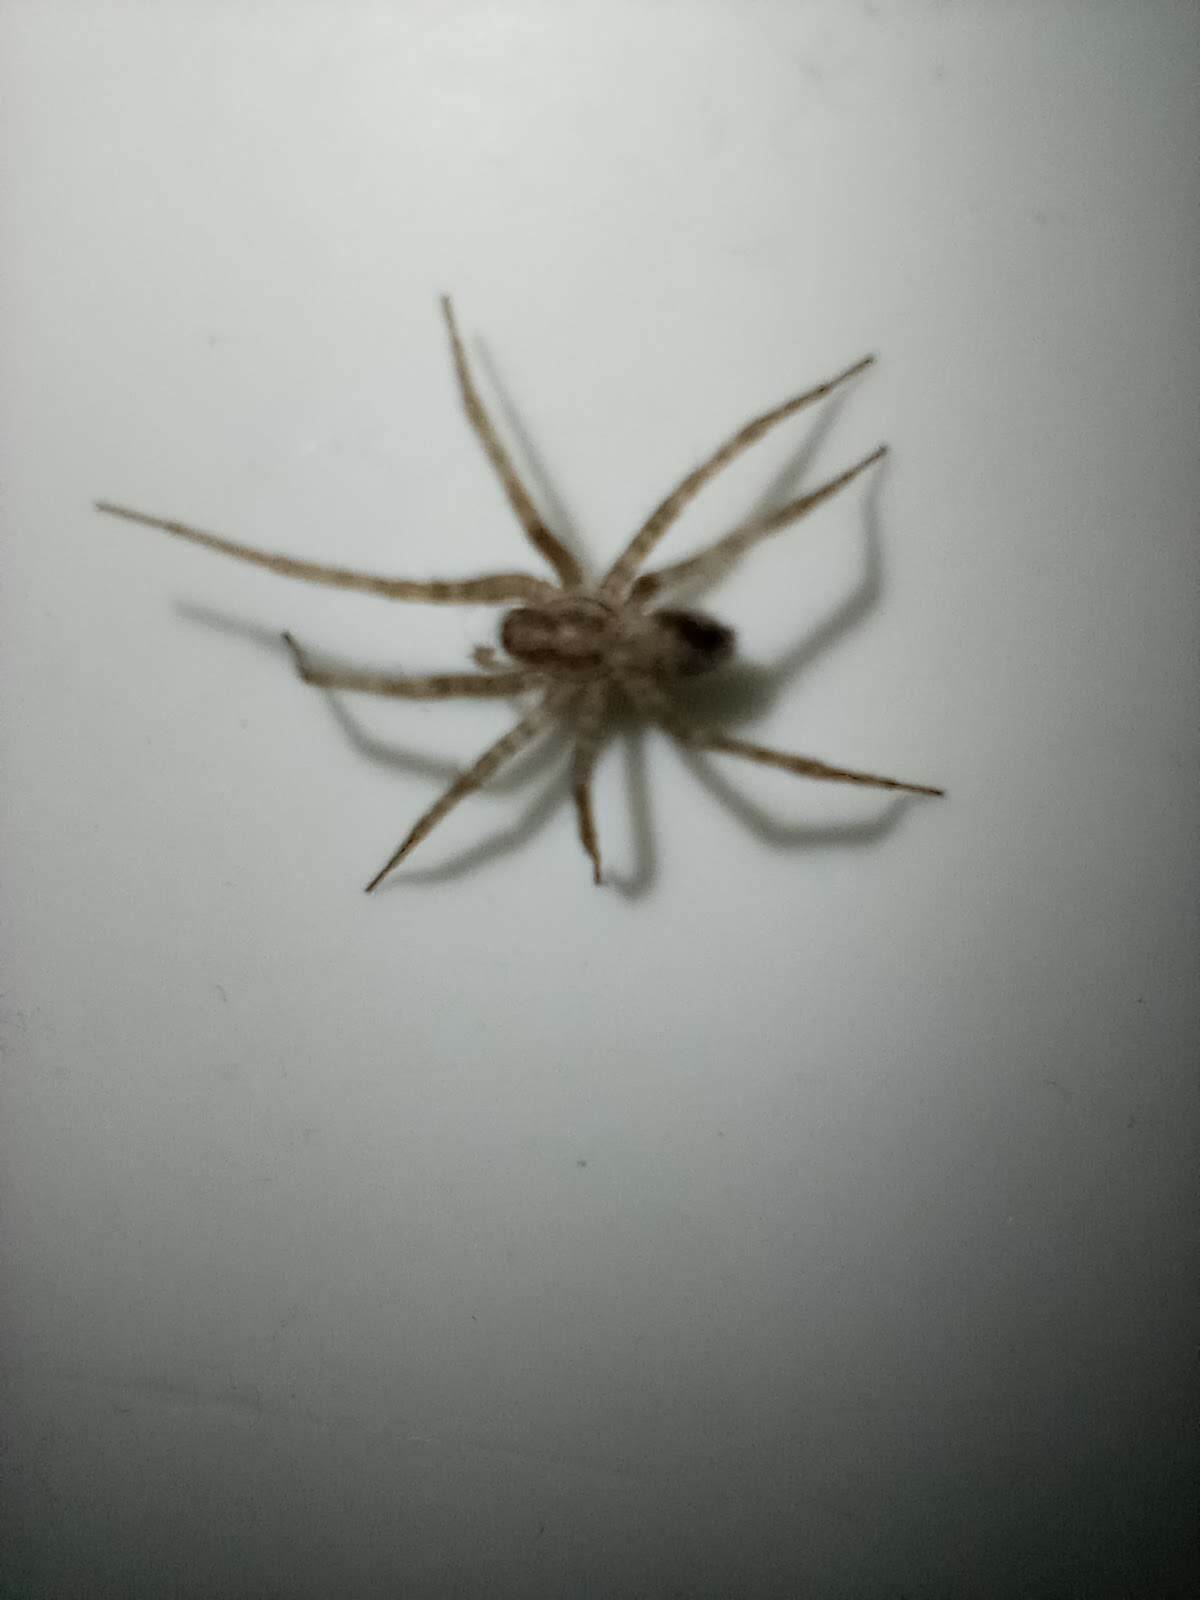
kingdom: Animalia
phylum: Arthropoda
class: Arachnida
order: Araneae
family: Agelenidae
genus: Tegenaria
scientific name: Tegenaria domestica
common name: Barn funnel weaver
